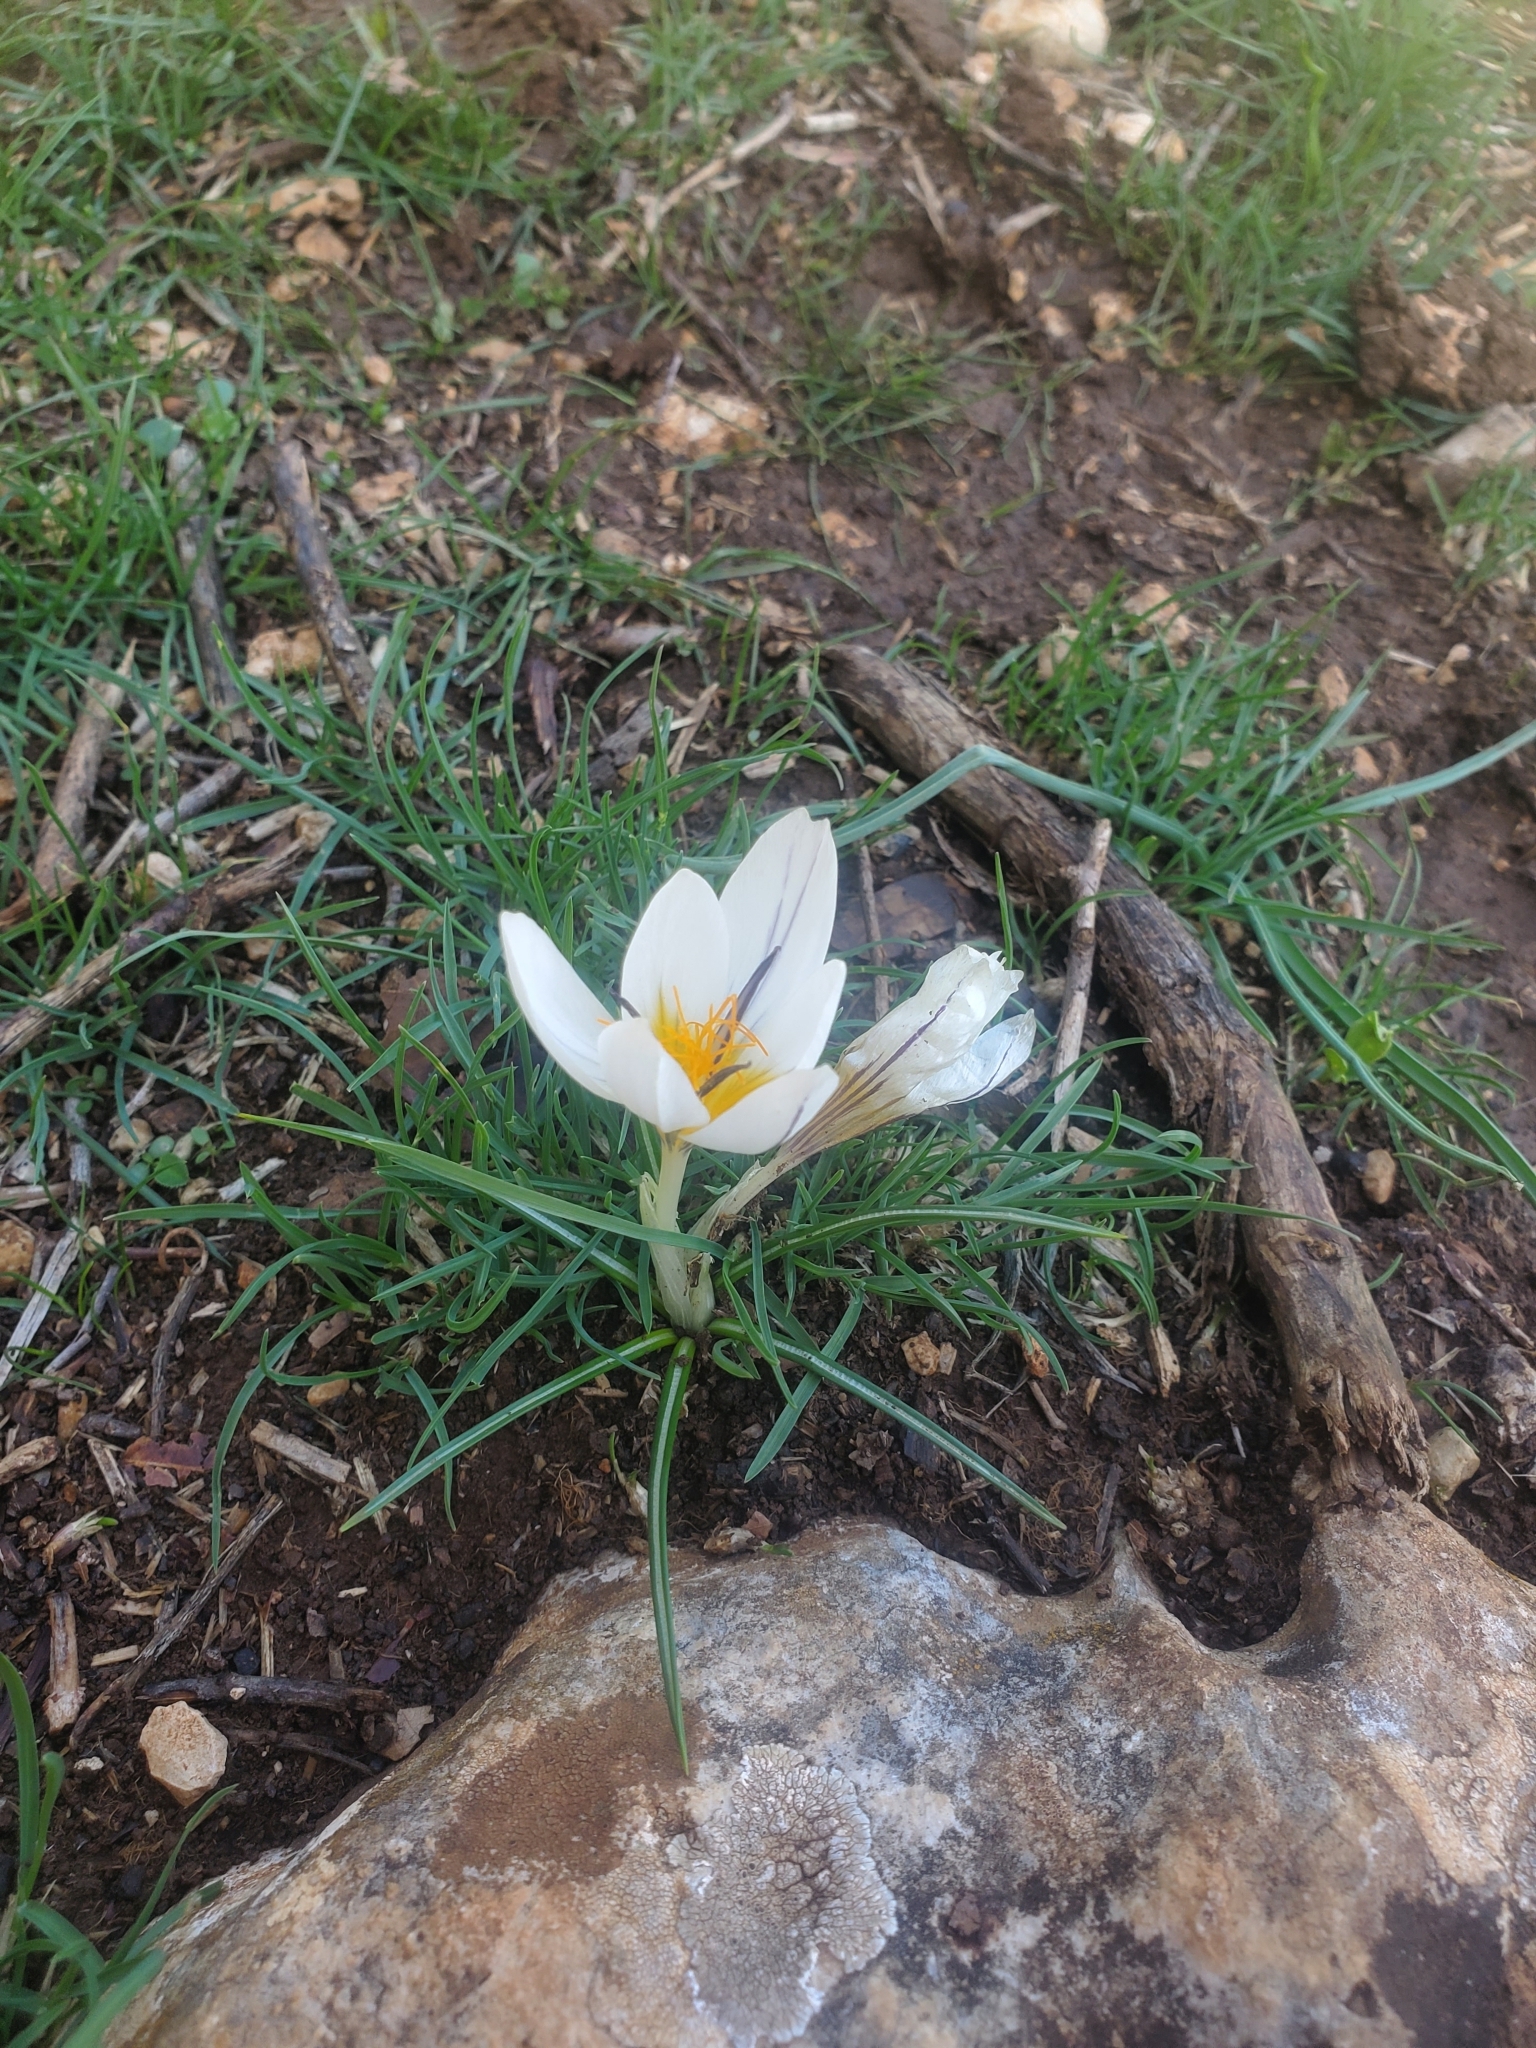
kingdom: Plantae
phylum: Tracheophyta
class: Liliopsida
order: Asparagales
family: Iridaceae
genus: Crocus
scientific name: Crocus hyemalis
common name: Winter crocus
